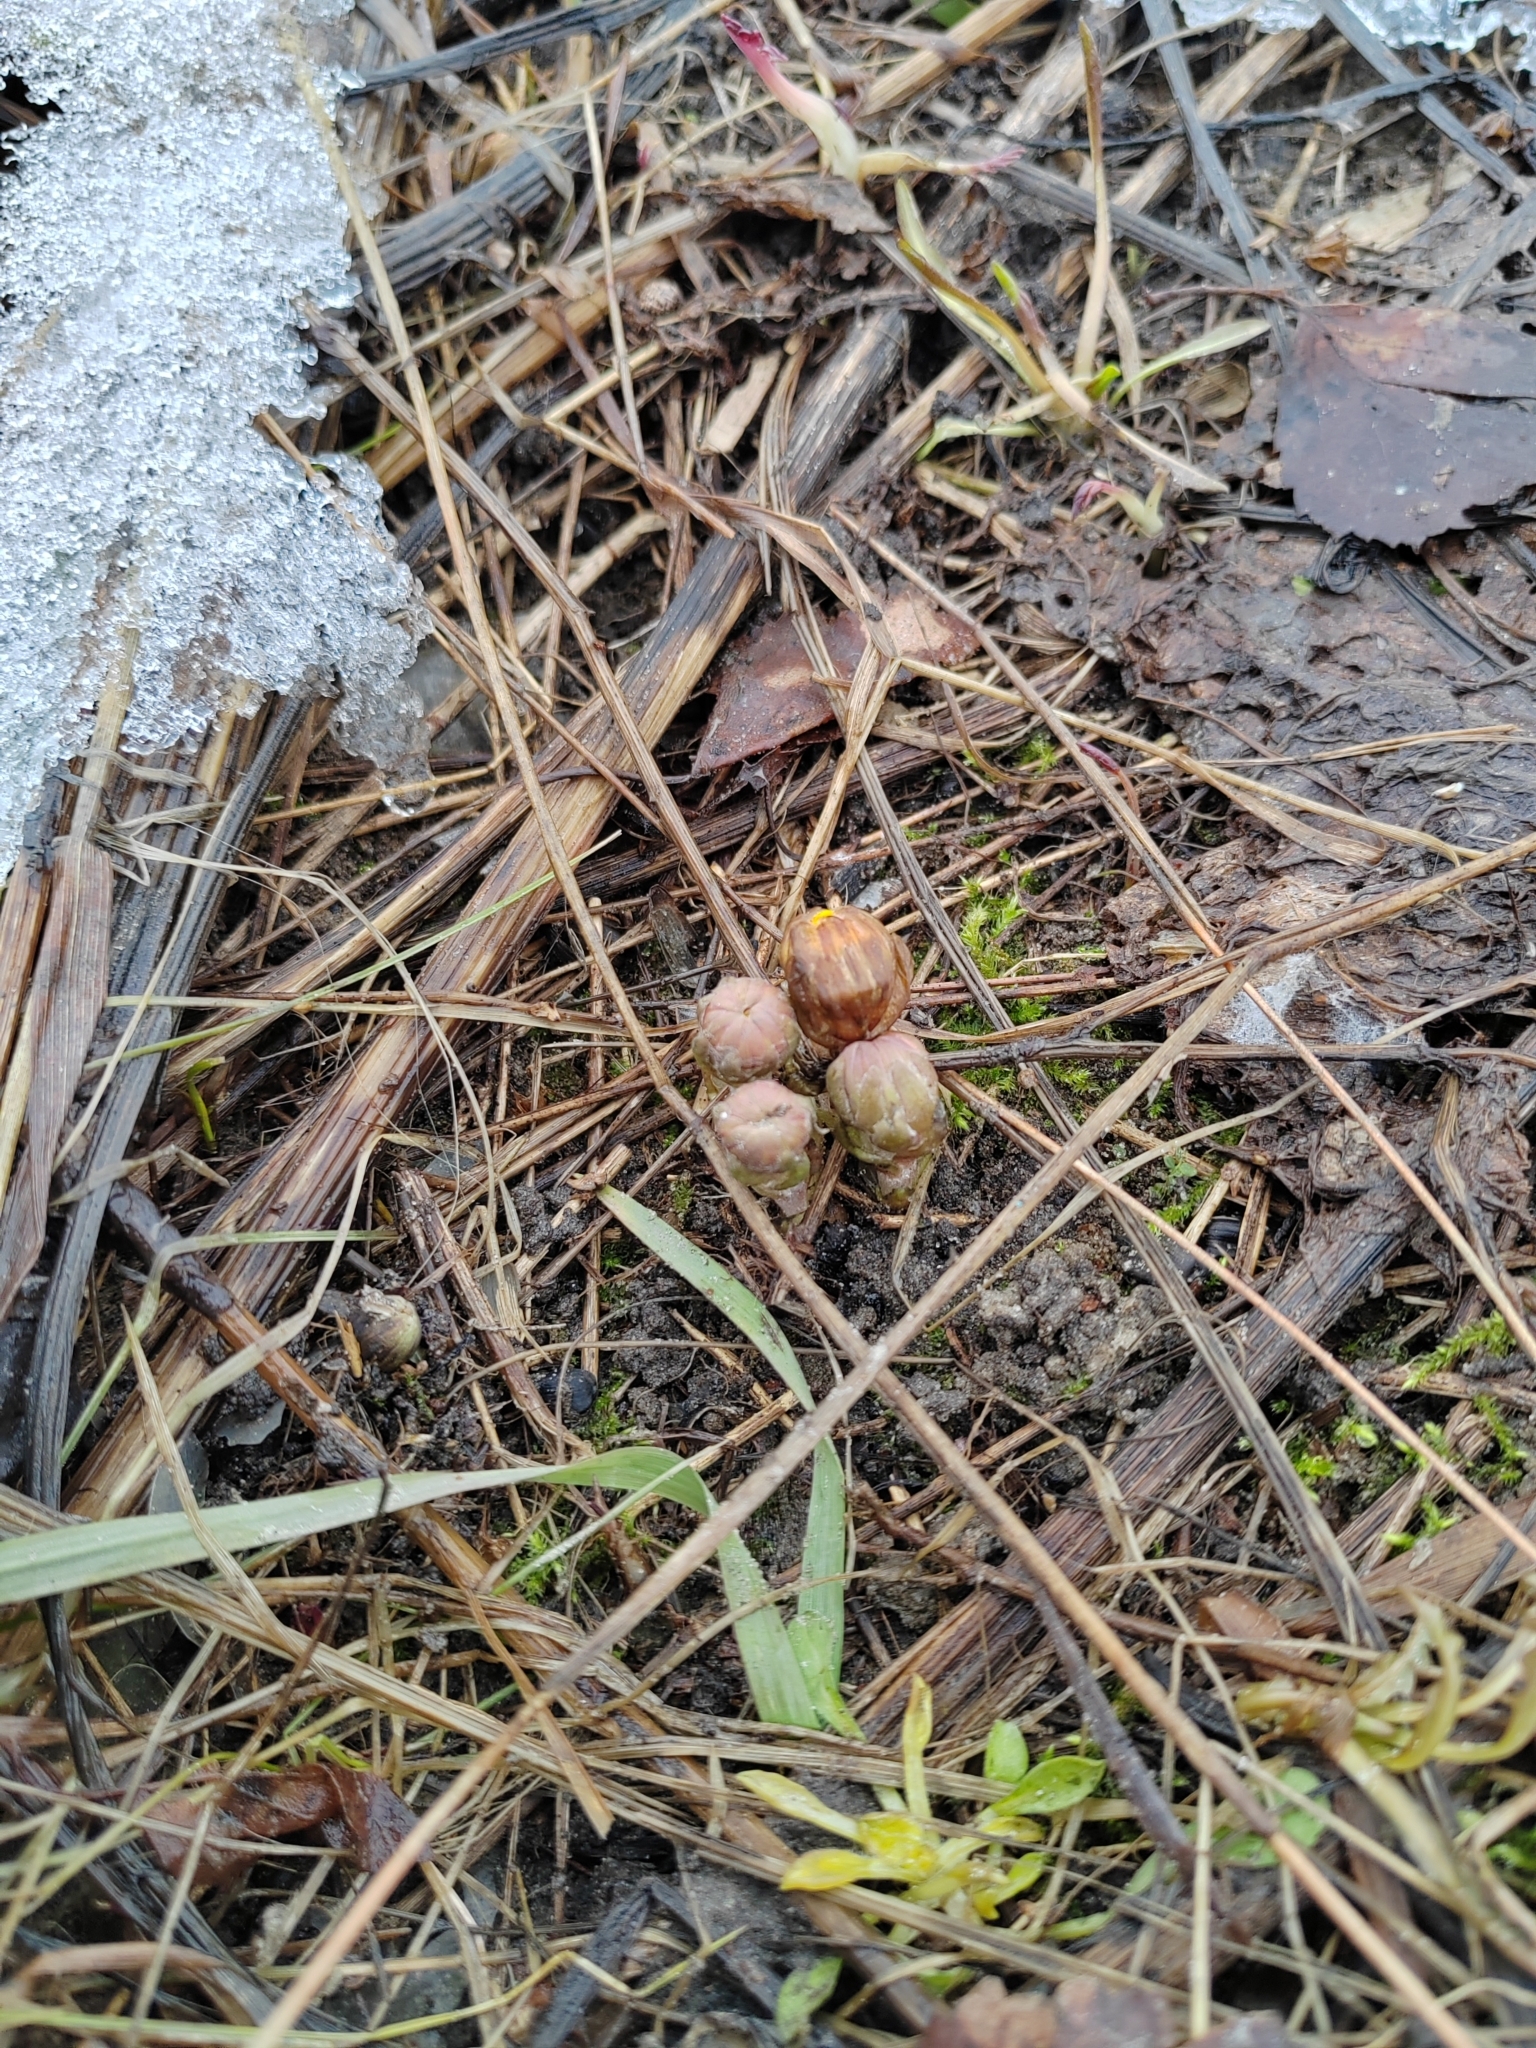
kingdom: Plantae
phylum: Tracheophyta
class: Magnoliopsida
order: Asterales
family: Asteraceae
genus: Tussilago
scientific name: Tussilago farfara
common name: Coltsfoot
